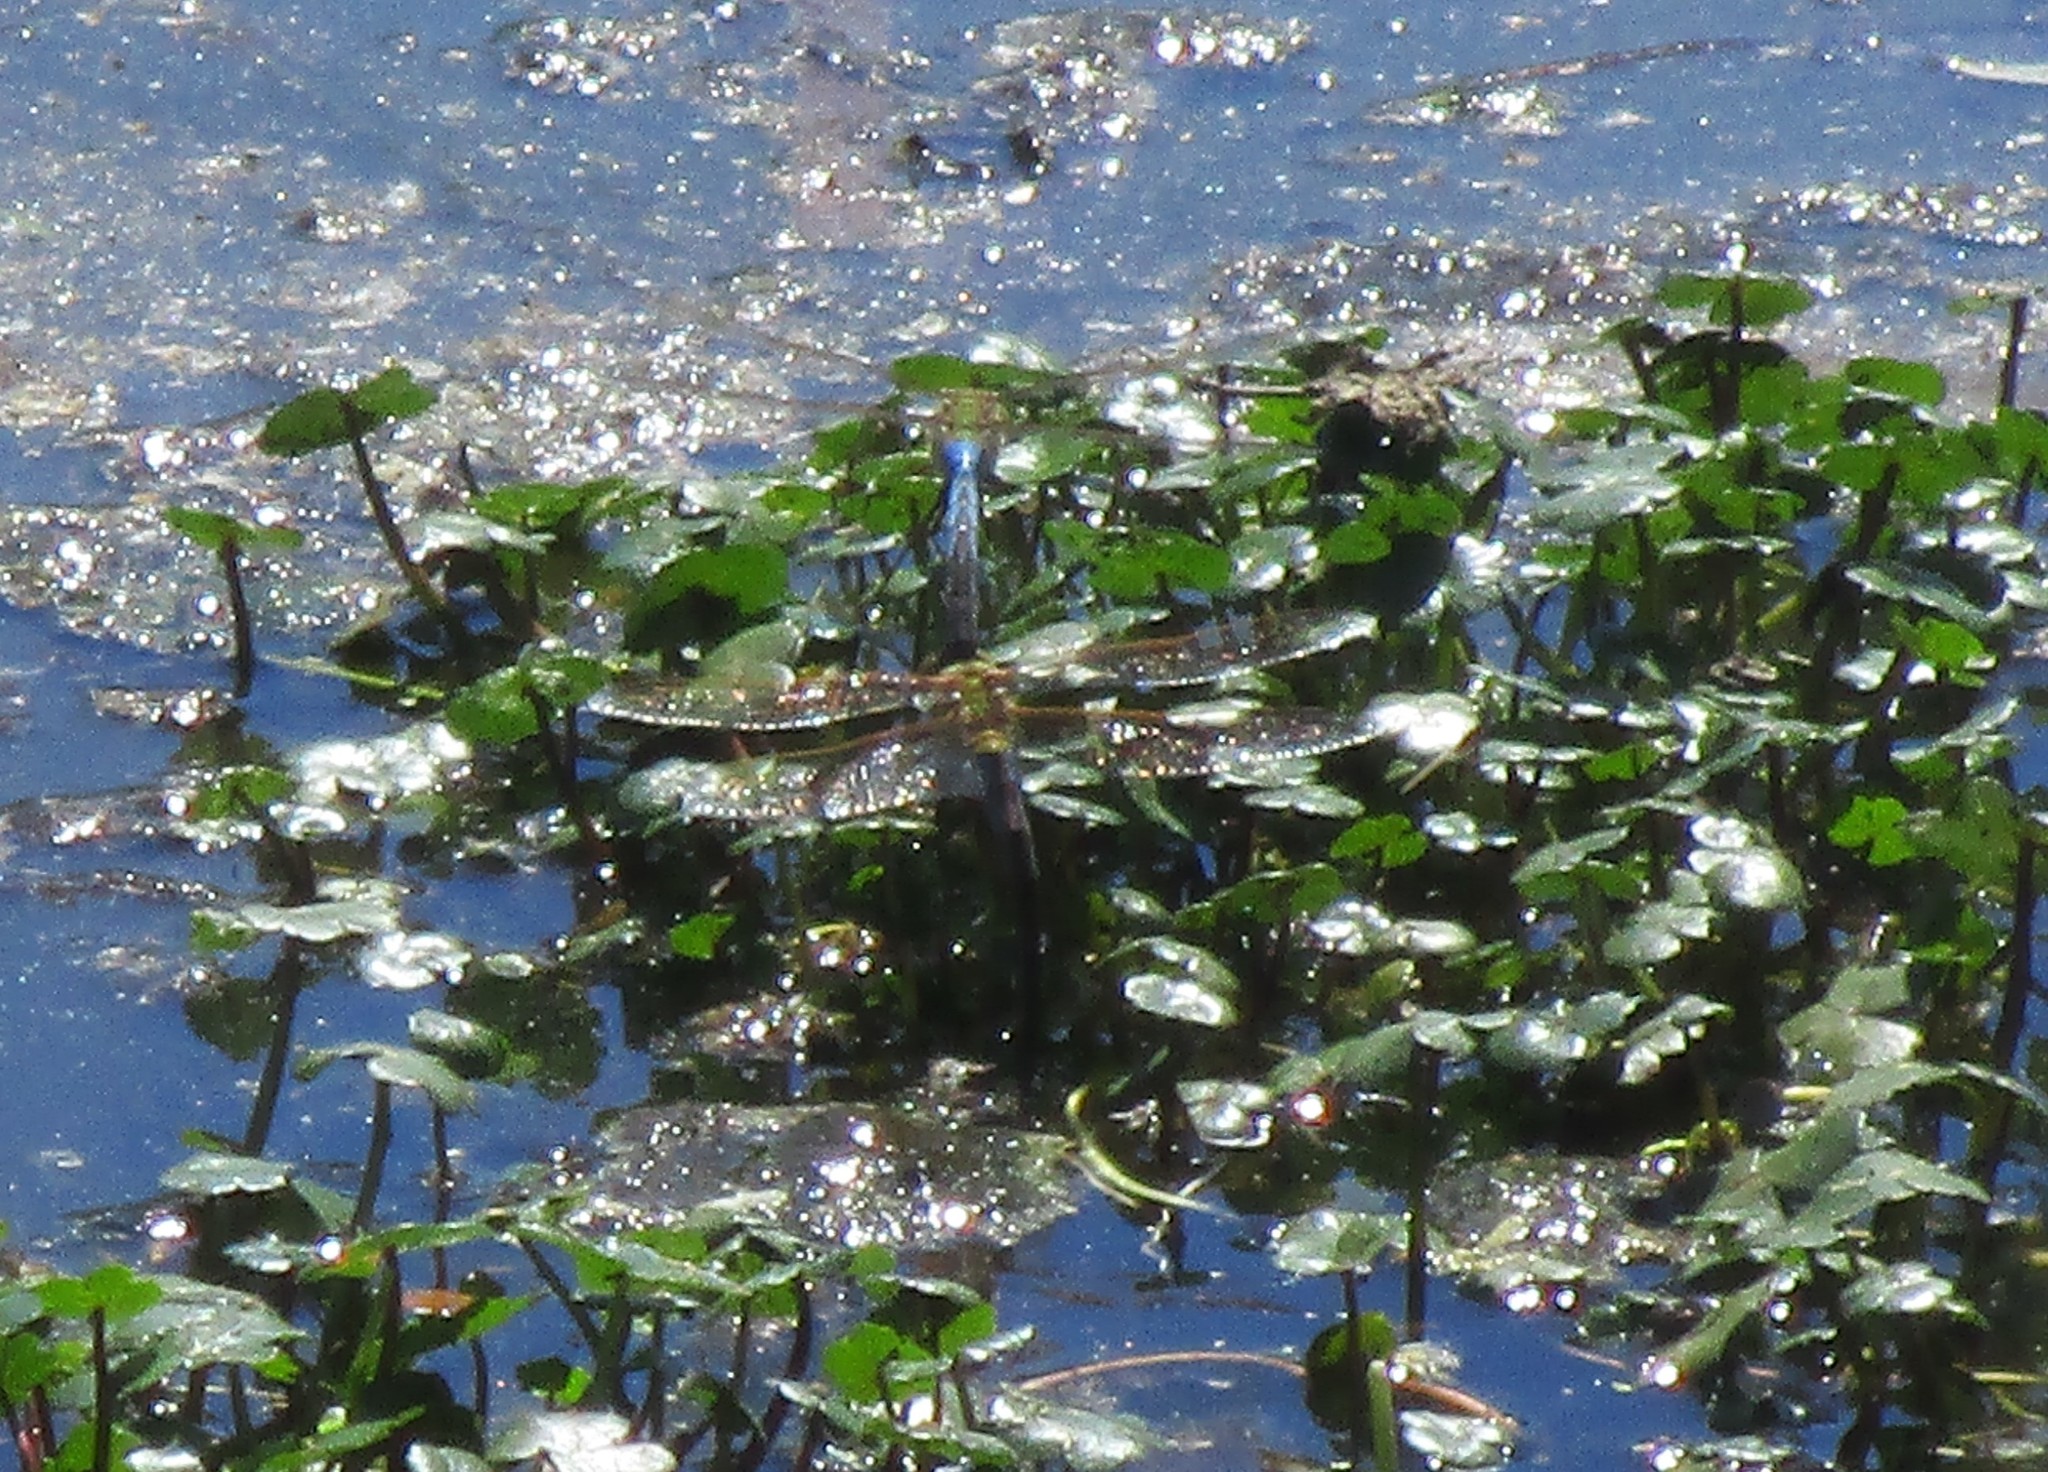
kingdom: Animalia
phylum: Arthropoda
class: Insecta
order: Odonata
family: Aeshnidae
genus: Anax
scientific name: Anax junius
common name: Common green darner
